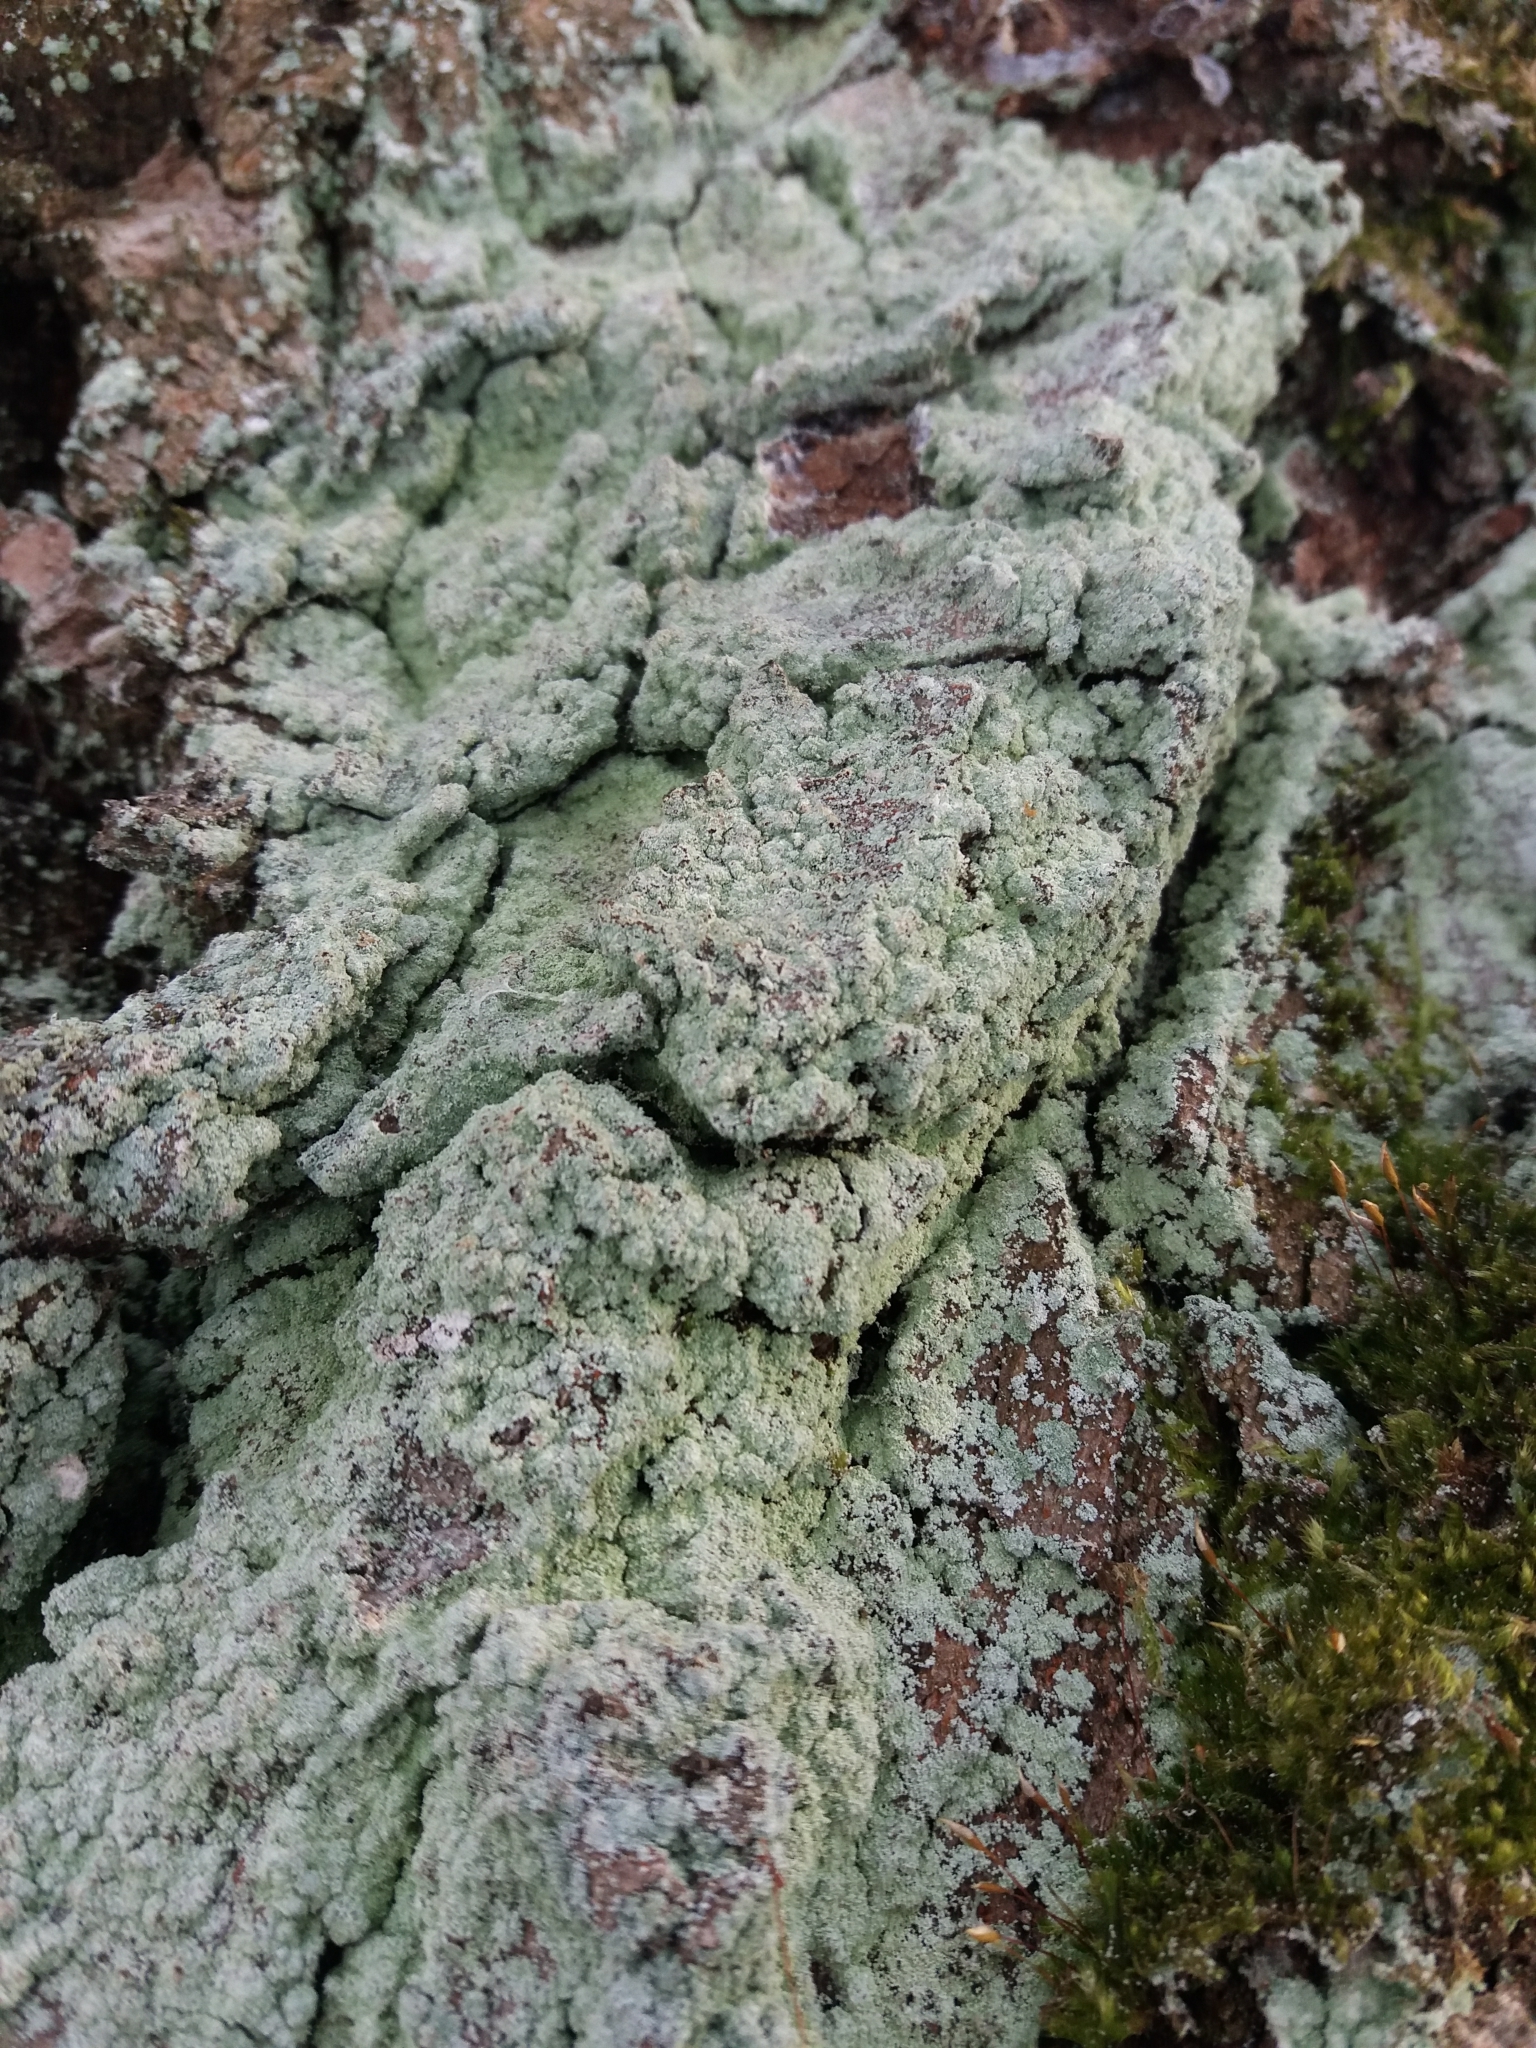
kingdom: Fungi
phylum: Ascomycota
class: Lecanoromycetes
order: Lecanorales
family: Stereocaulaceae
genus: Lepraria
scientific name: Lepraria
